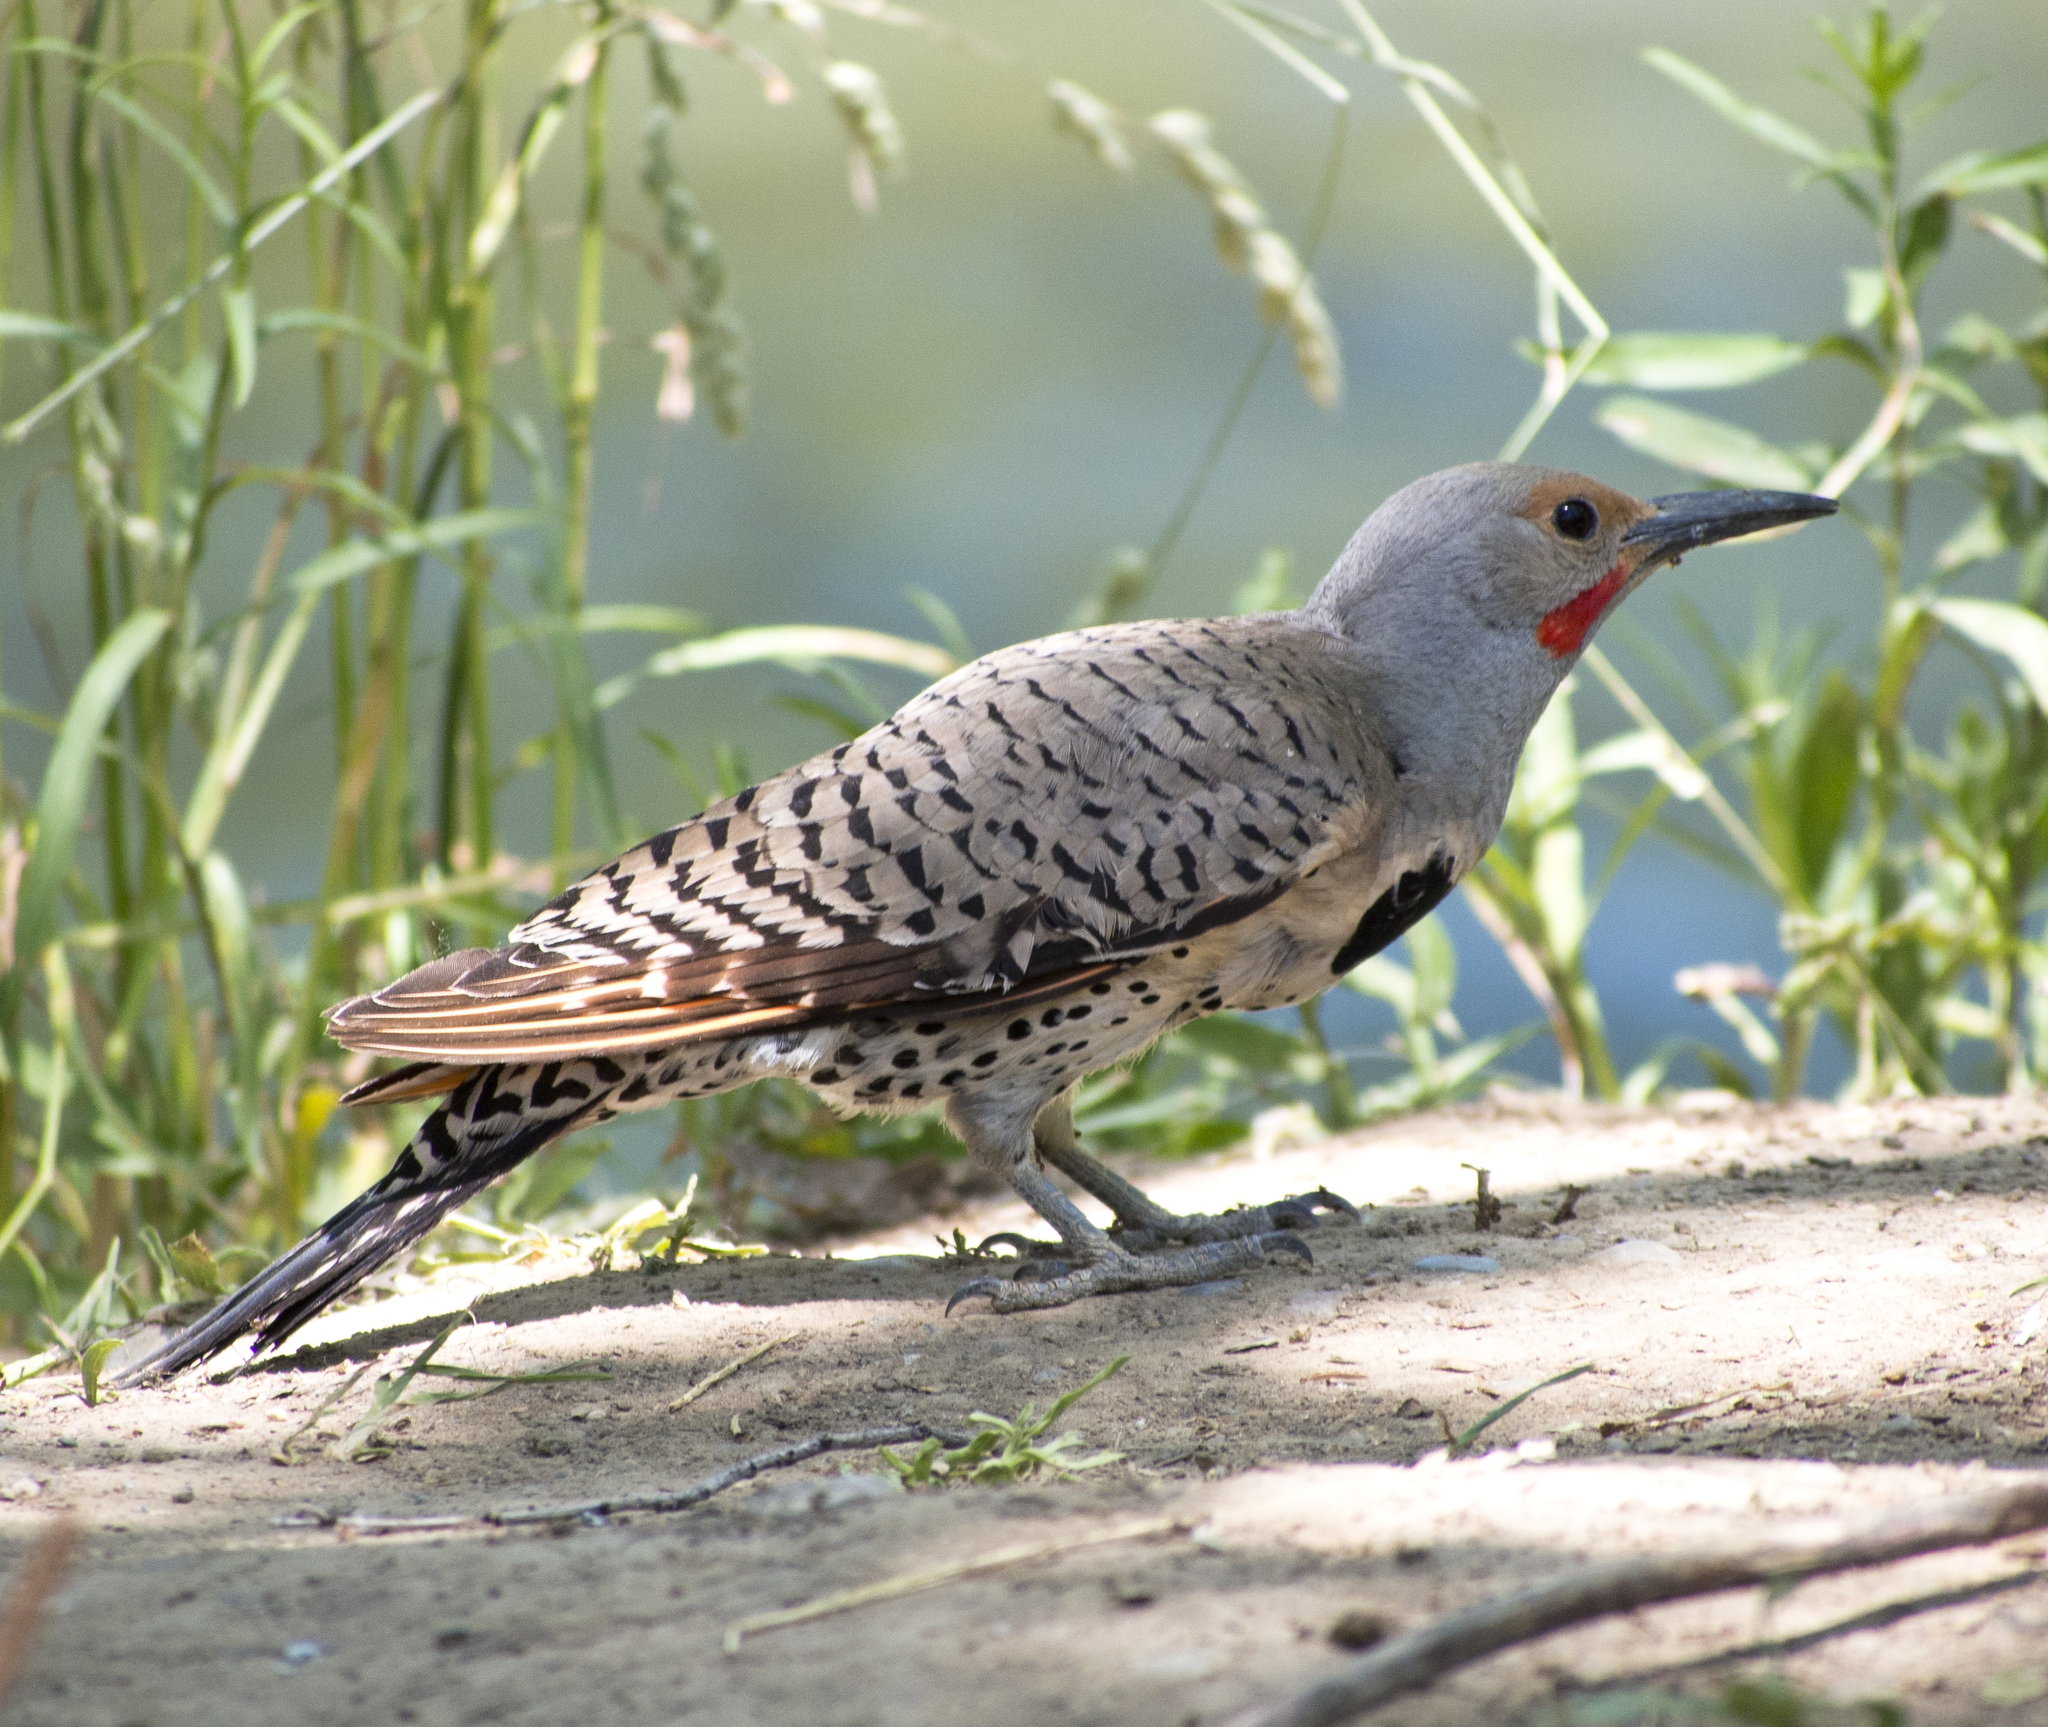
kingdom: Animalia
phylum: Chordata
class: Aves
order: Piciformes
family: Picidae
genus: Colaptes
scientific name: Colaptes auratus
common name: Northern flicker
